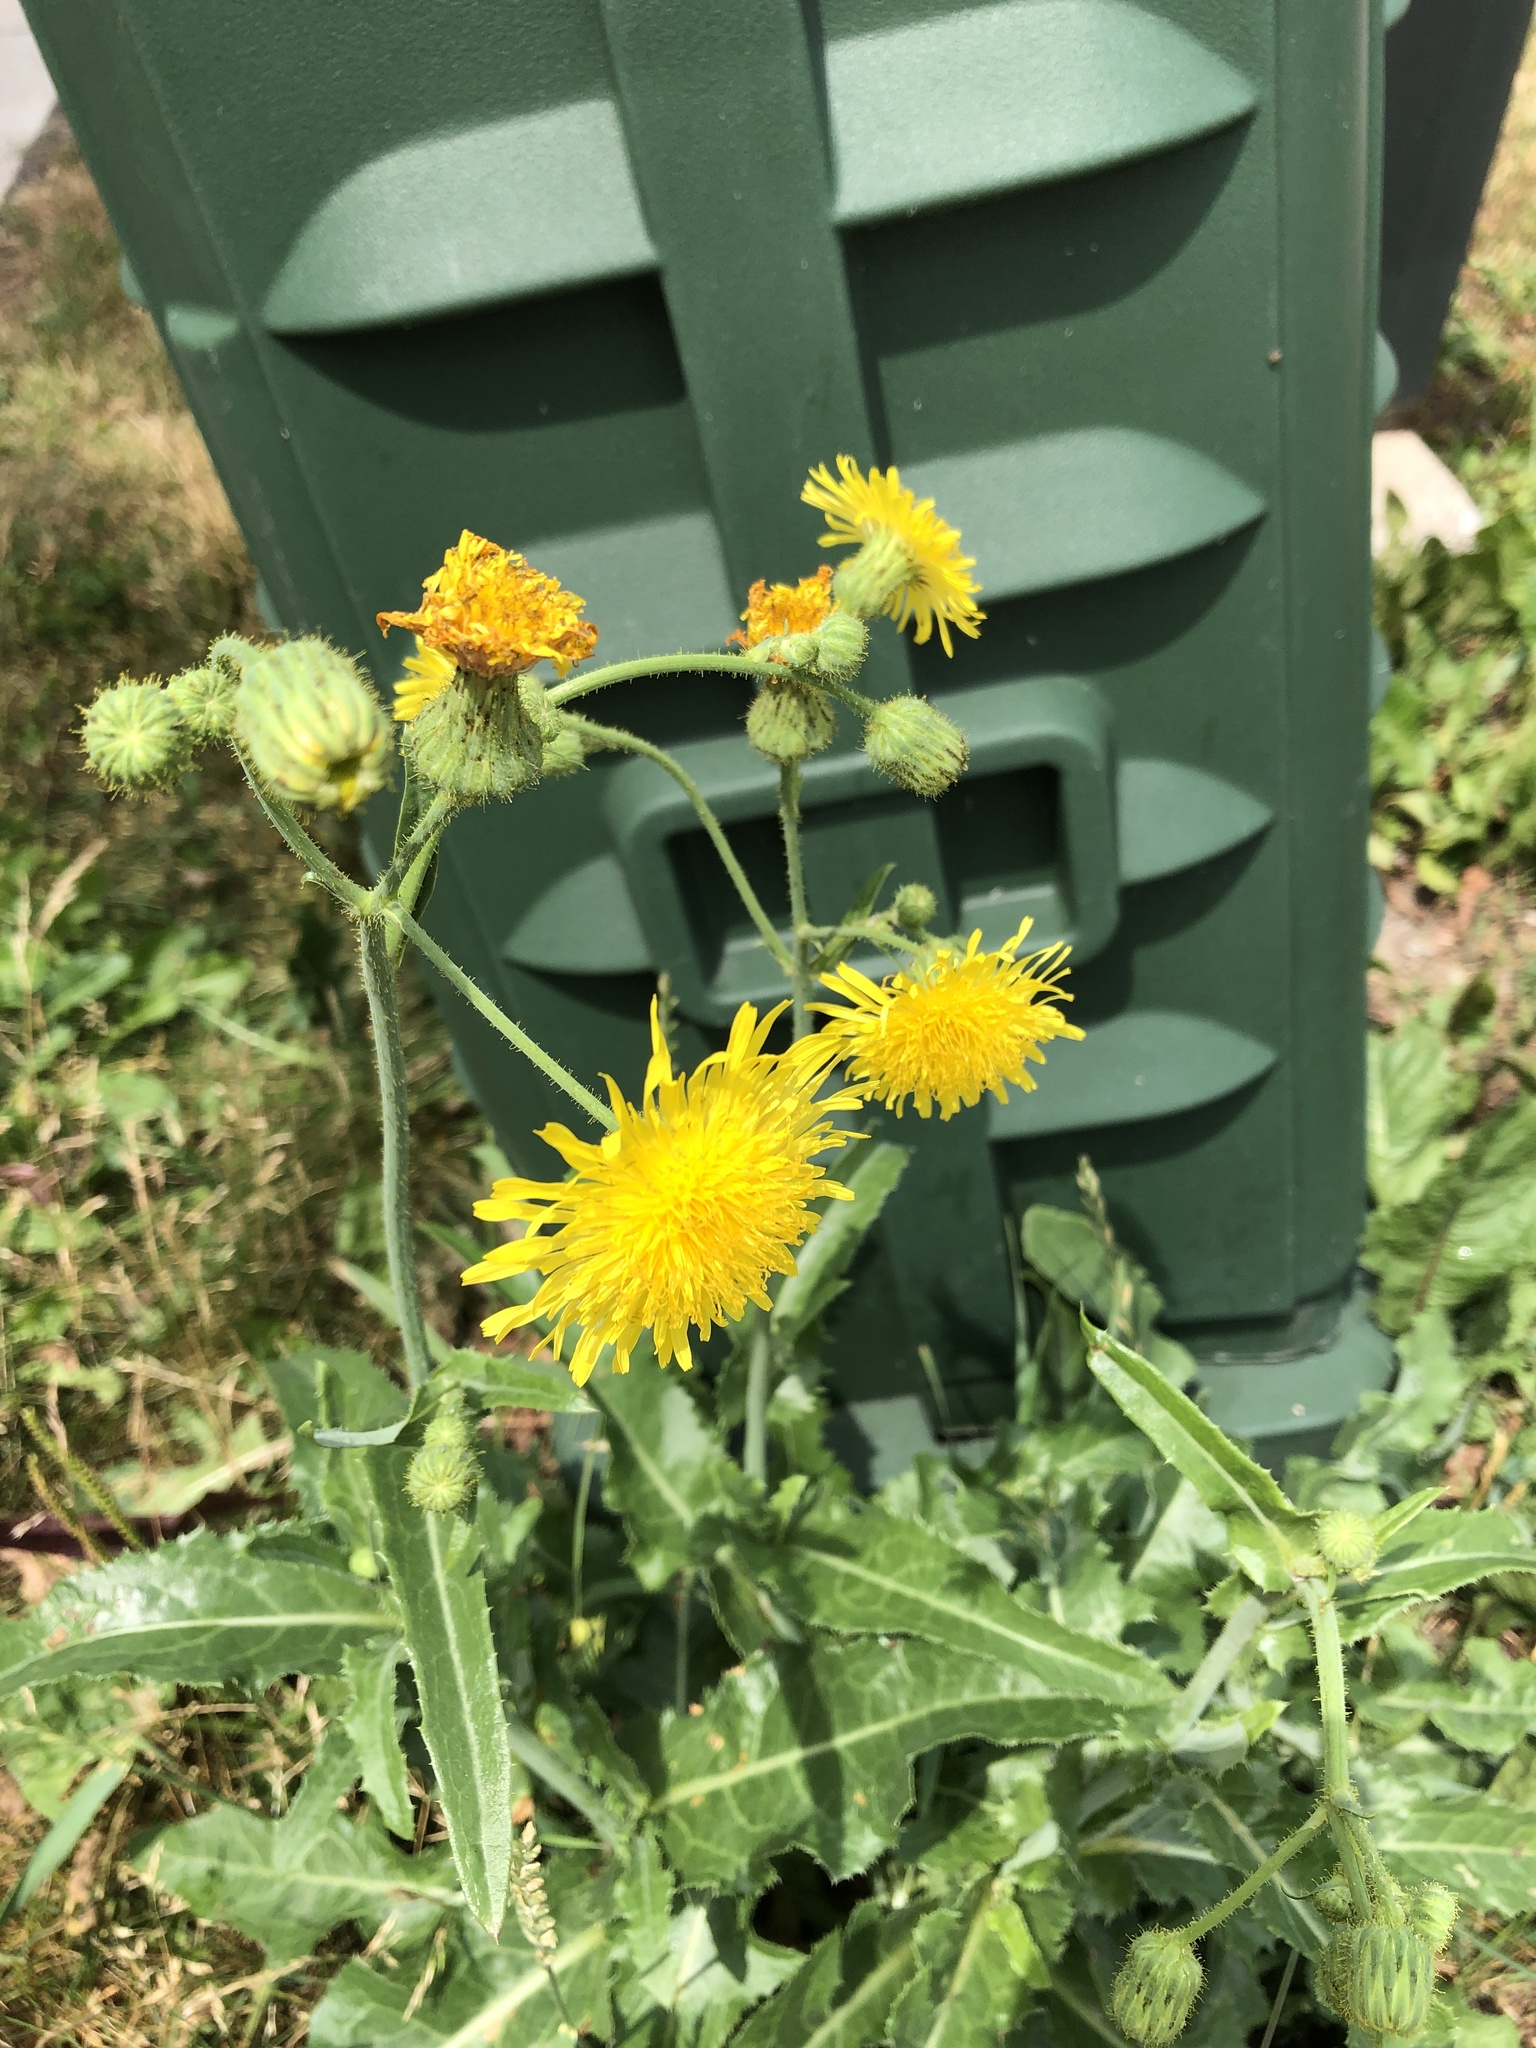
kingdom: Plantae
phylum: Tracheophyta
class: Magnoliopsida
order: Asterales
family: Asteraceae
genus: Sonchus
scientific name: Sonchus arvensis
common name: Perennial sow-thistle
